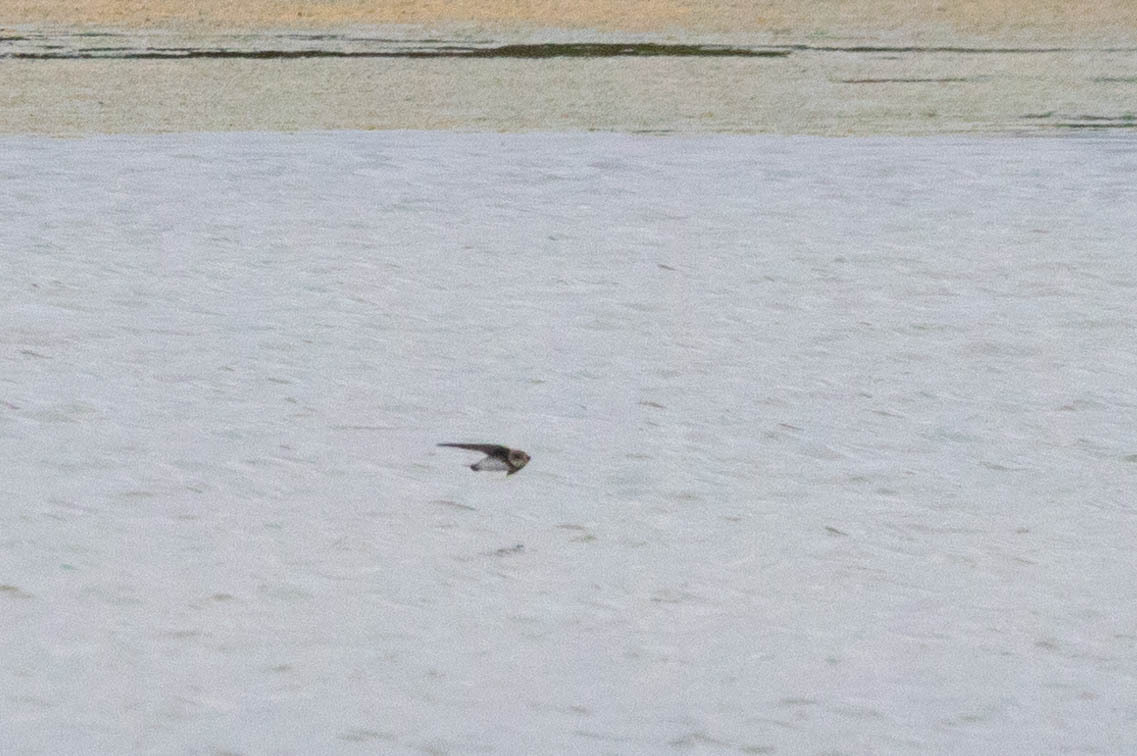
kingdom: Animalia
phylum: Chordata
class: Aves
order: Passeriformes
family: Hirundinidae
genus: Riparia
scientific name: Riparia riparia
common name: Sand martin
